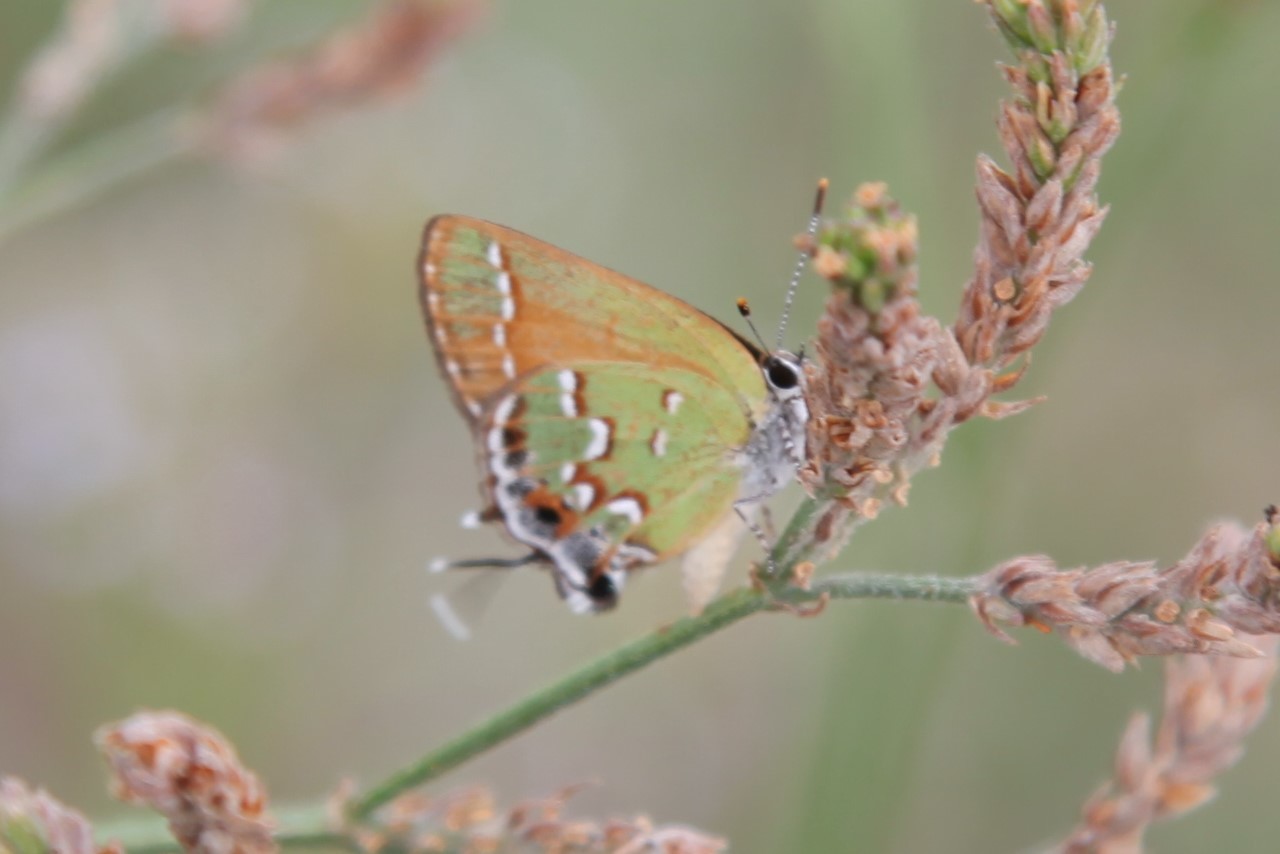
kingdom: Animalia
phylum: Arthropoda
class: Insecta
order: Lepidoptera
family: Lycaenidae
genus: Mitoura
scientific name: Mitoura gryneus
